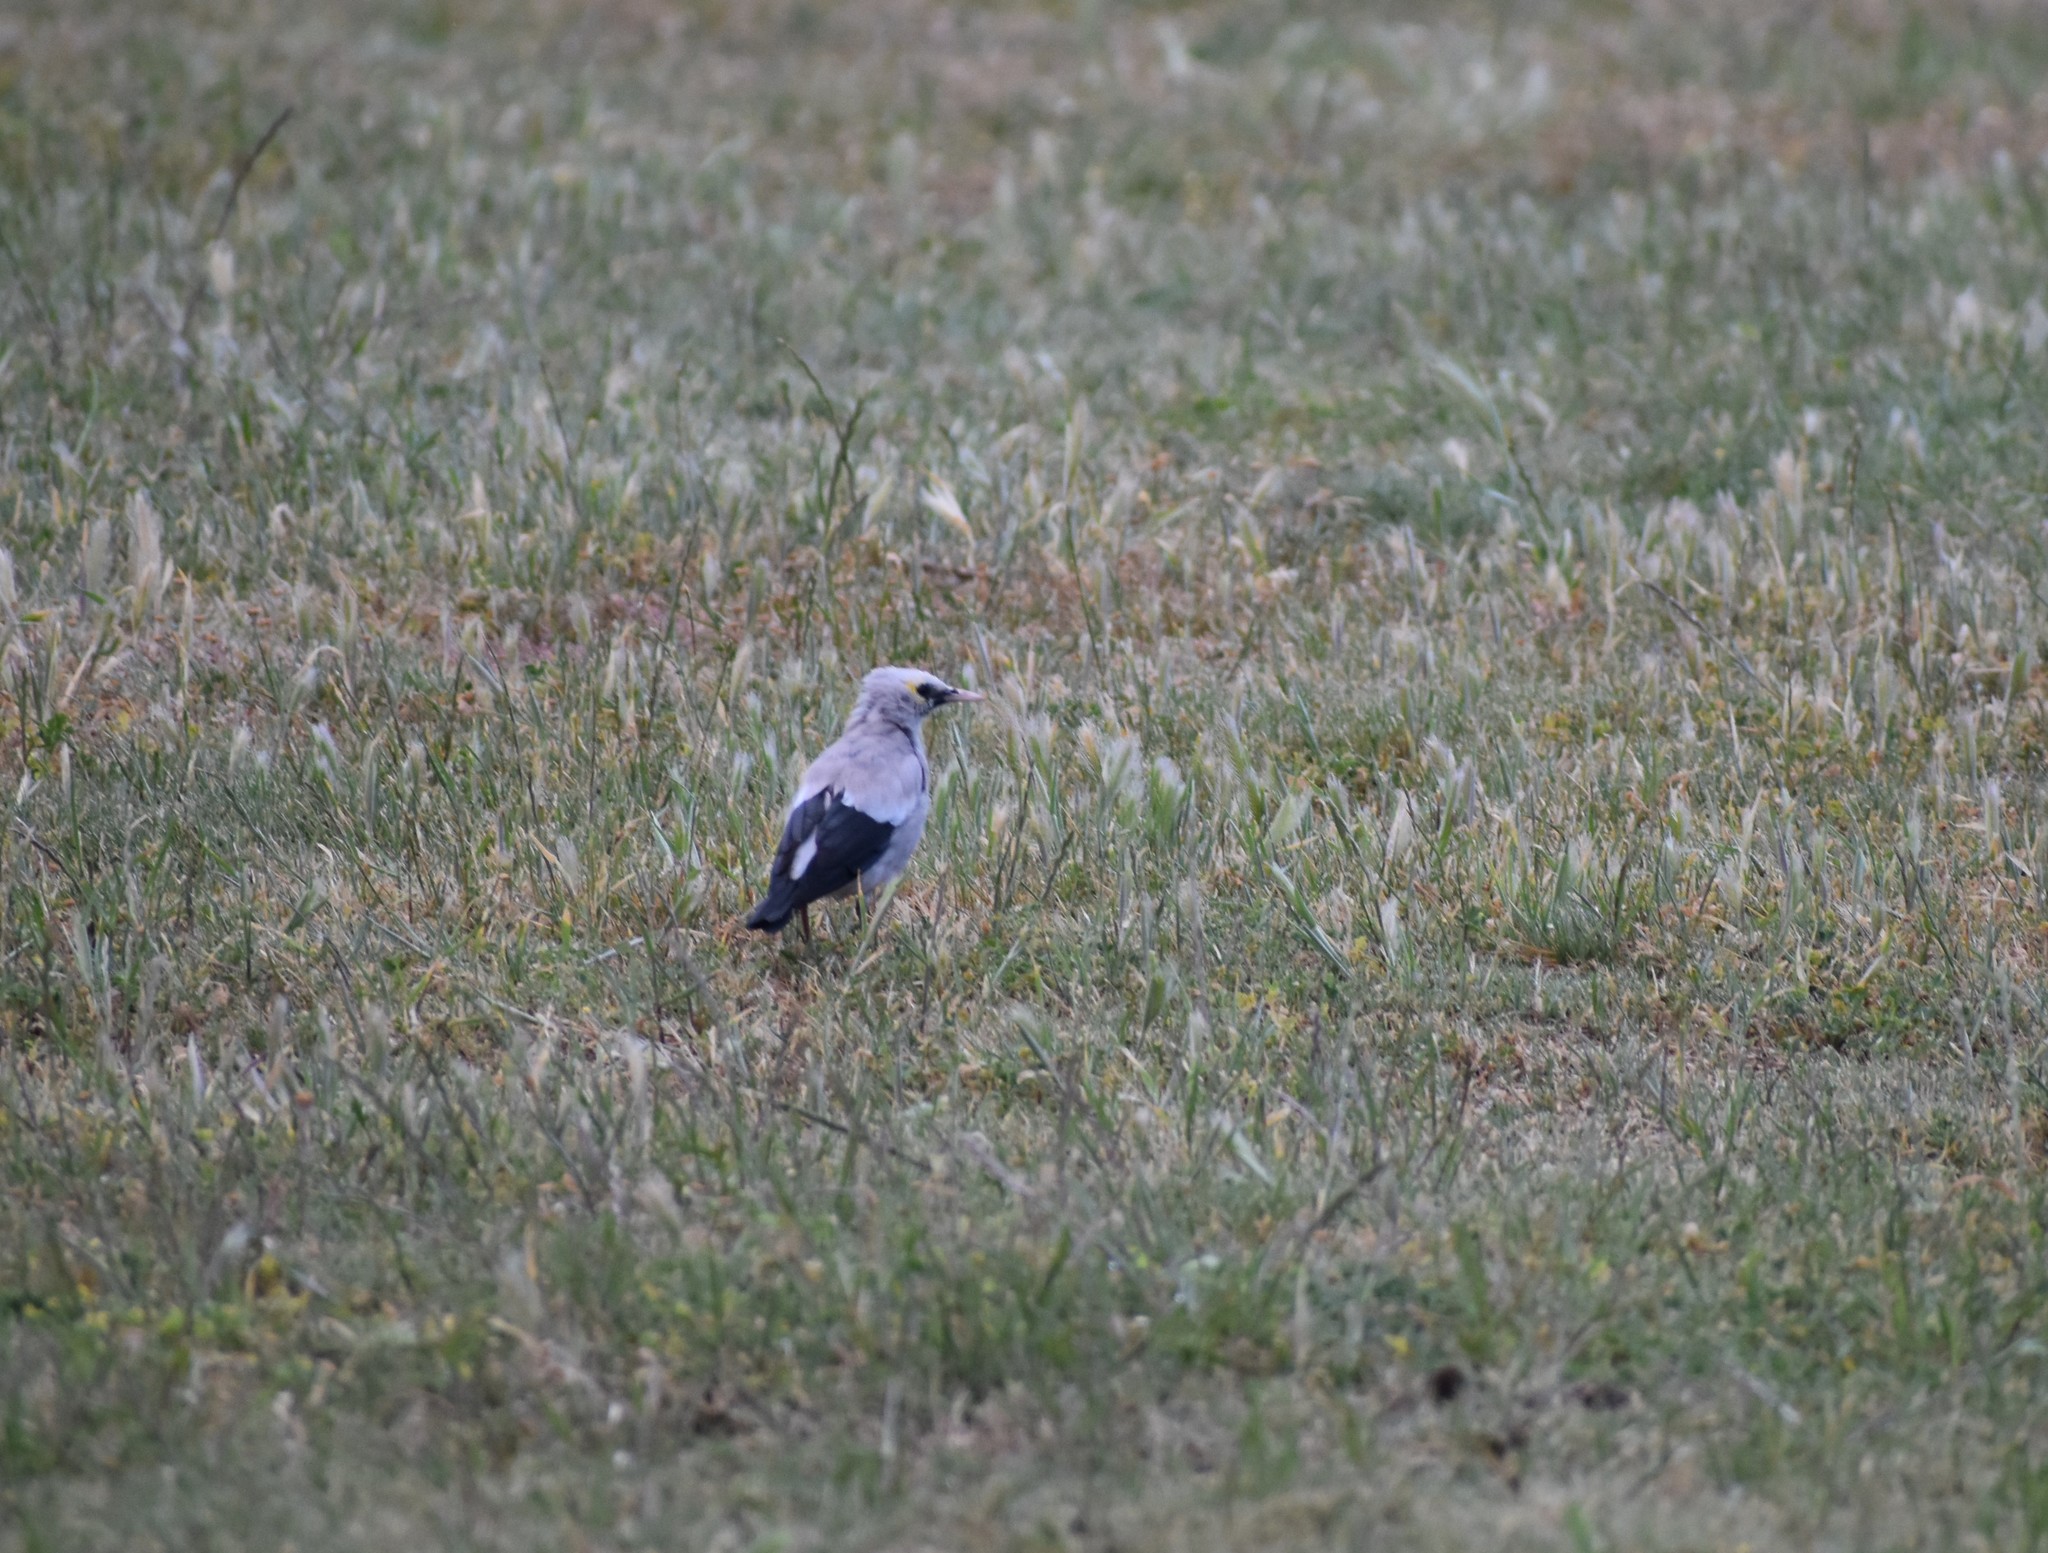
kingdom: Animalia
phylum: Chordata
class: Aves
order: Passeriformes
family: Sturnidae
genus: Creatophora
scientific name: Creatophora cinerea
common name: Wattled starling
